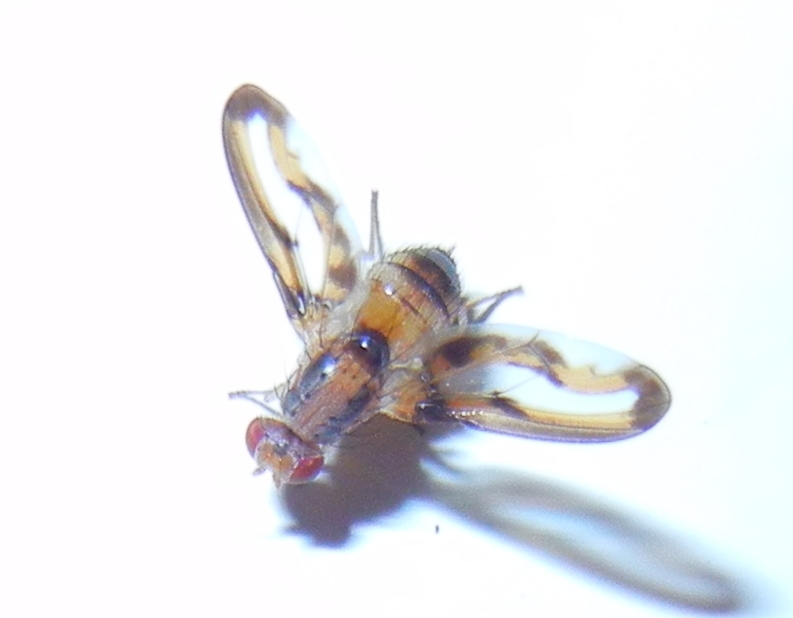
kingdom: Animalia
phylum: Arthropoda
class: Insecta
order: Diptera
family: Pallopteridae
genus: Toxonevra
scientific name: Toxonevra muliebris
